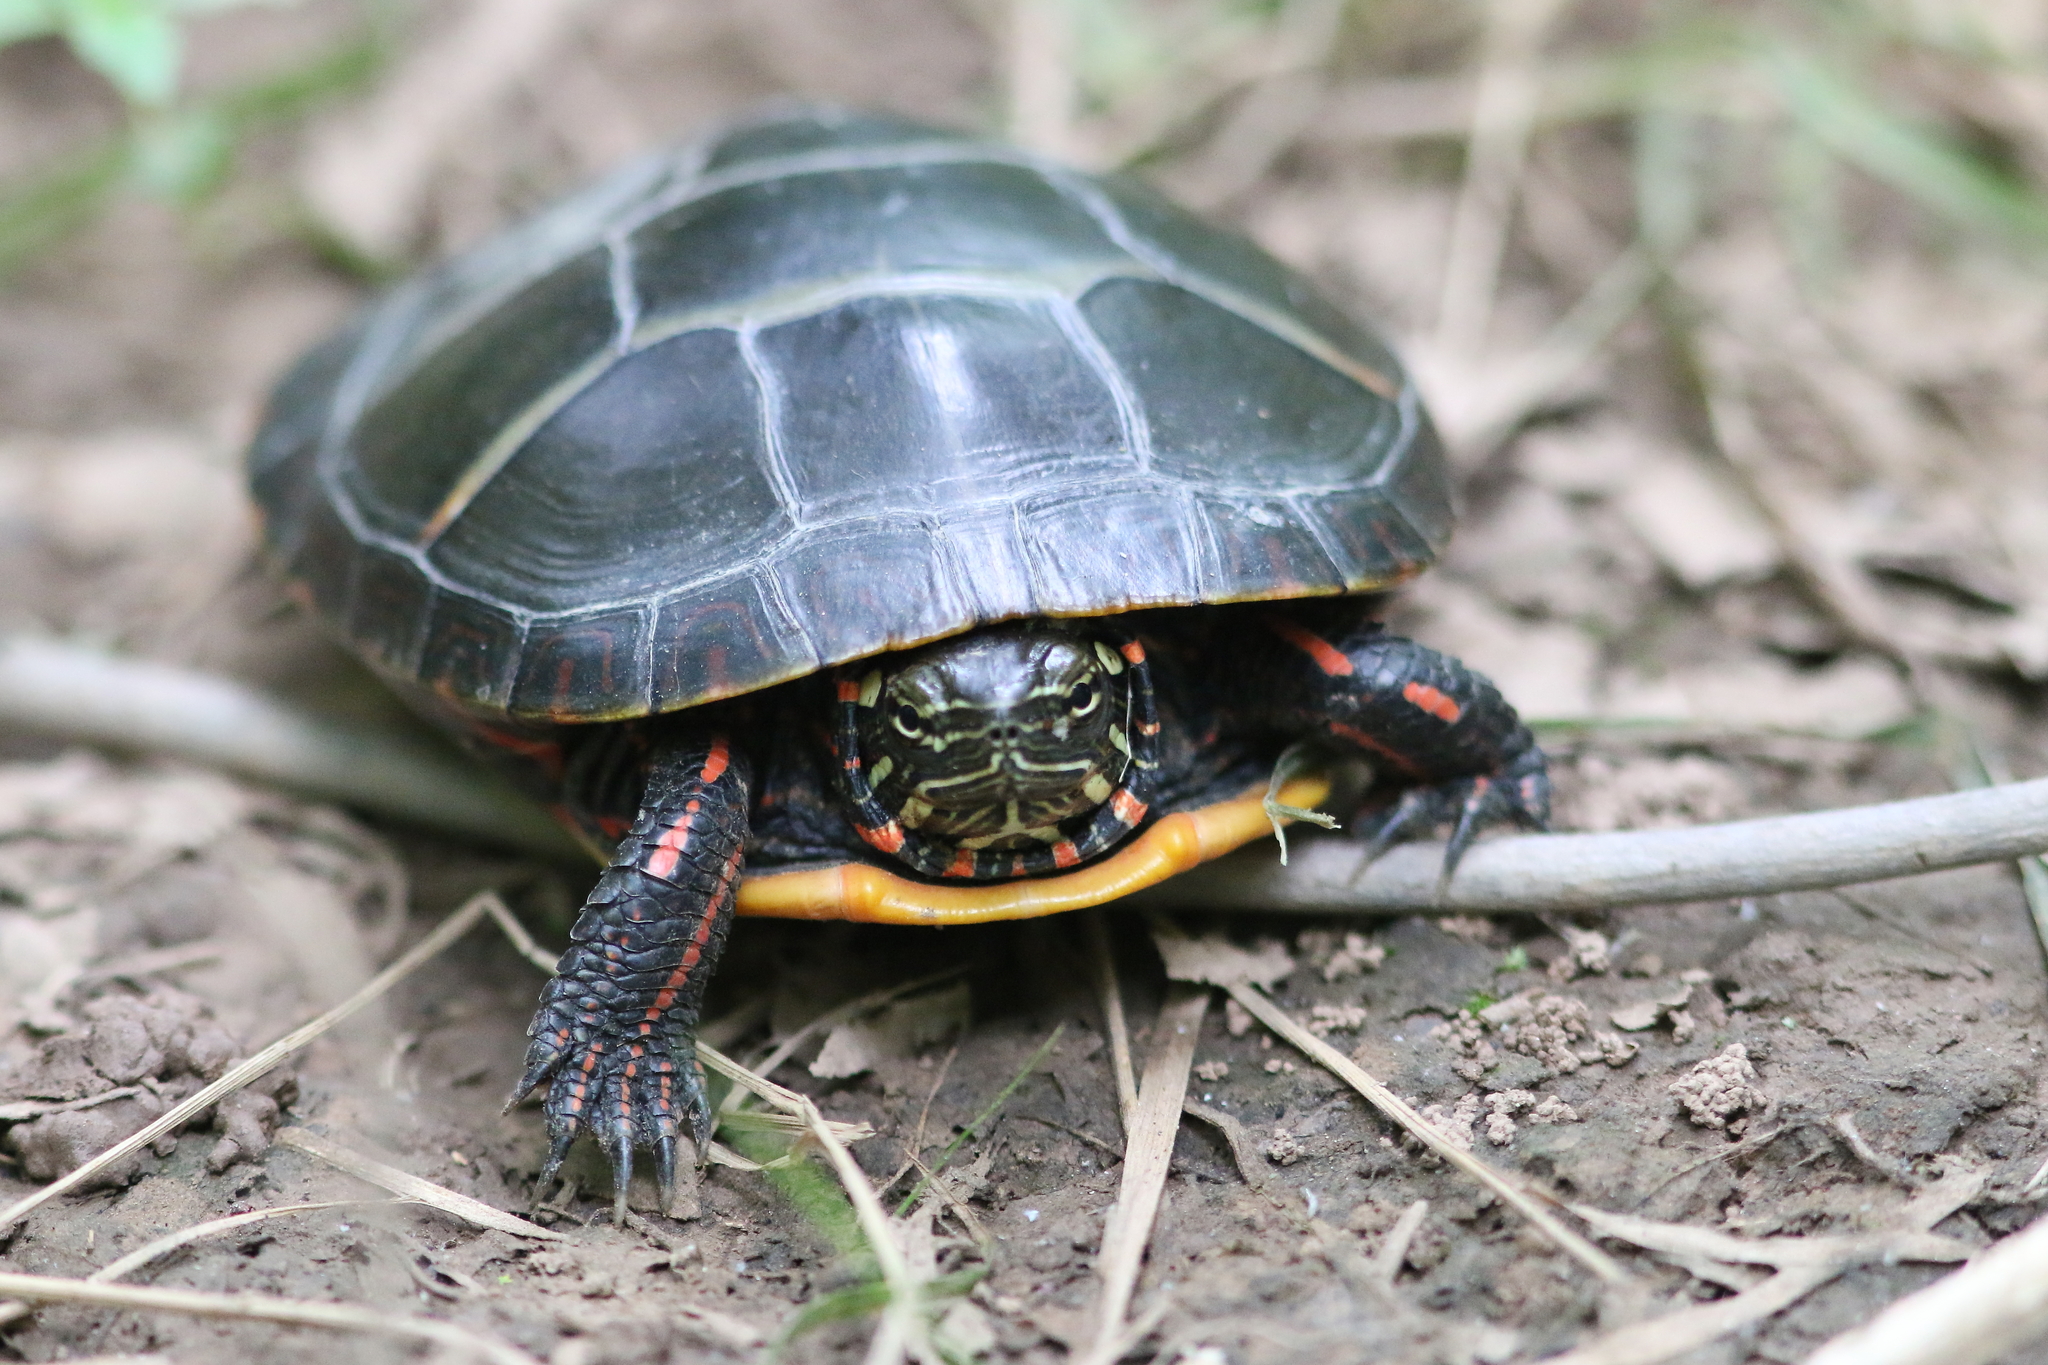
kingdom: Animalia
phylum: Chordata
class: Testudines
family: Emydidae
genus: Chrysemys
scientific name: Chrysemys picta
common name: Painted turtle
